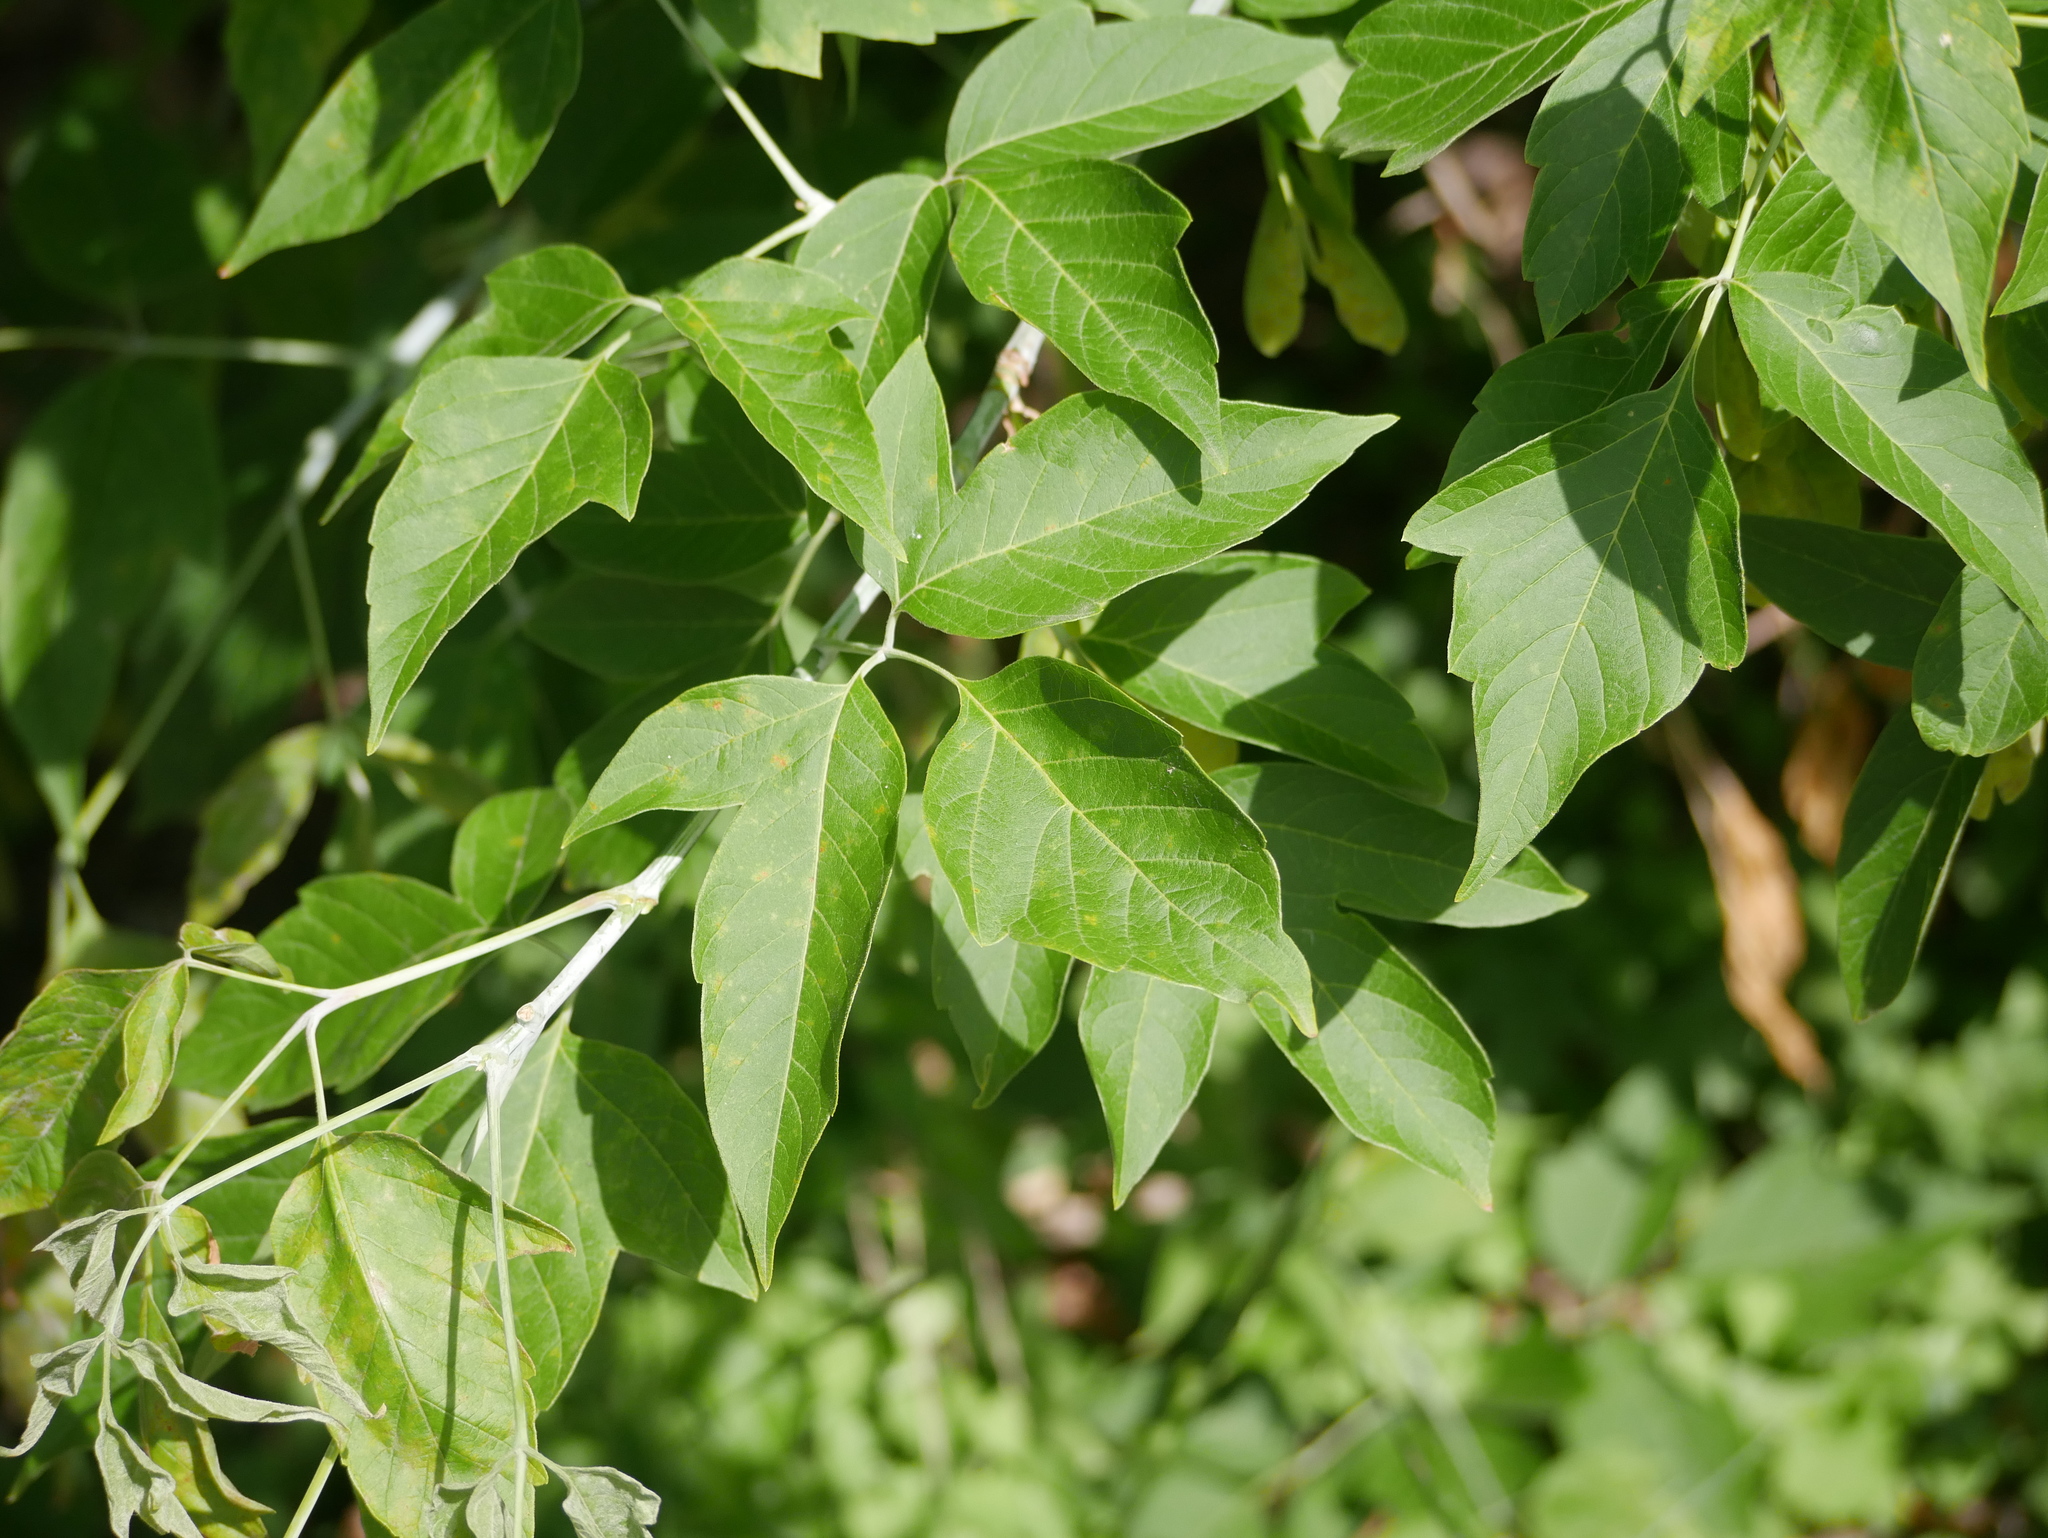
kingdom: Plantae
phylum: Tracheophyta
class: Magnoliopsida
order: Sapindales
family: Sapindaceae
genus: Acer
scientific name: Acer negundo
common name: Ashleaf maple
